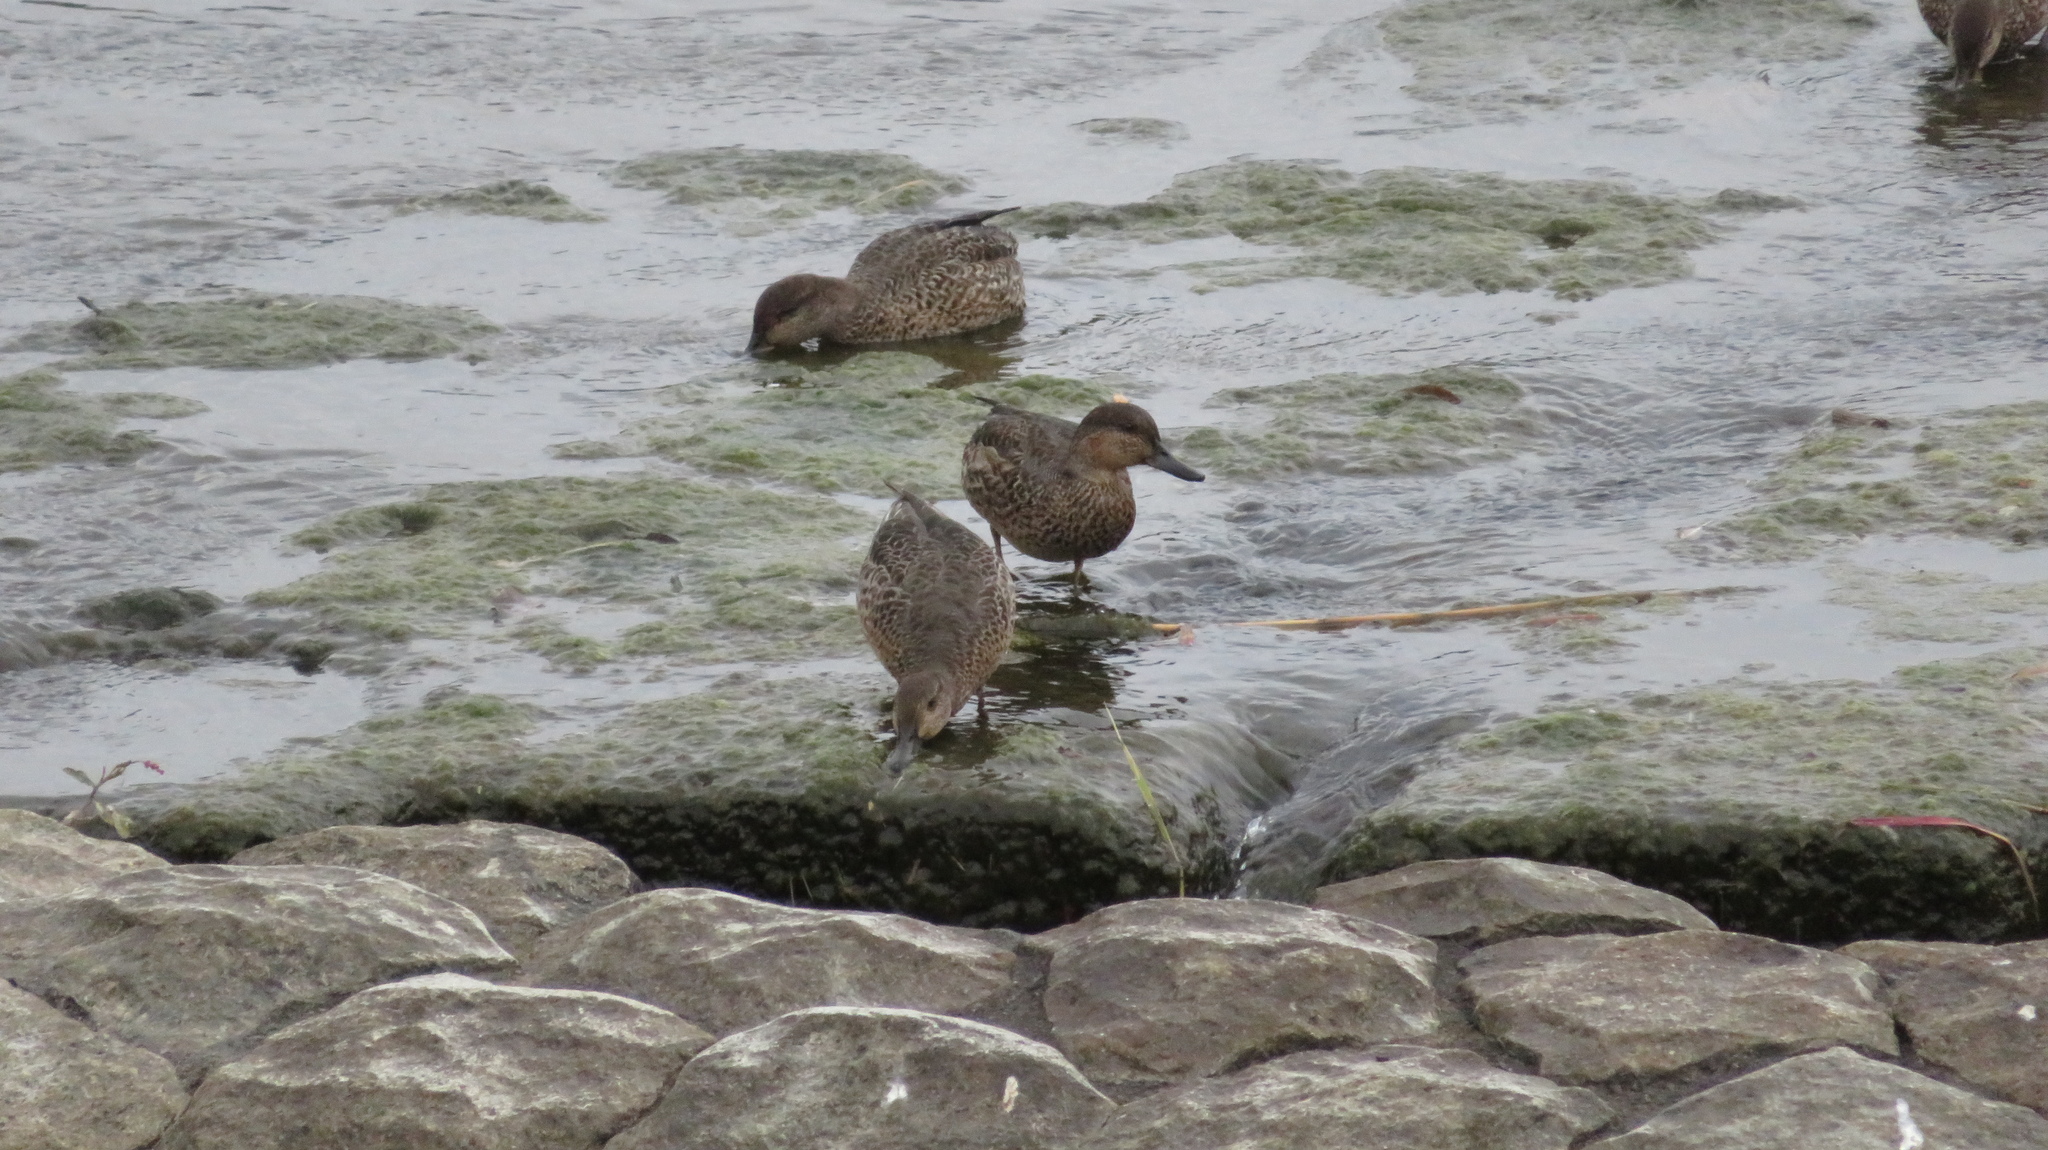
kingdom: Animalia
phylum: Chordata
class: Aves
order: Anseriformes
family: Anatidae
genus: Anas
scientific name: Anas crecca
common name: Eurasian teal
